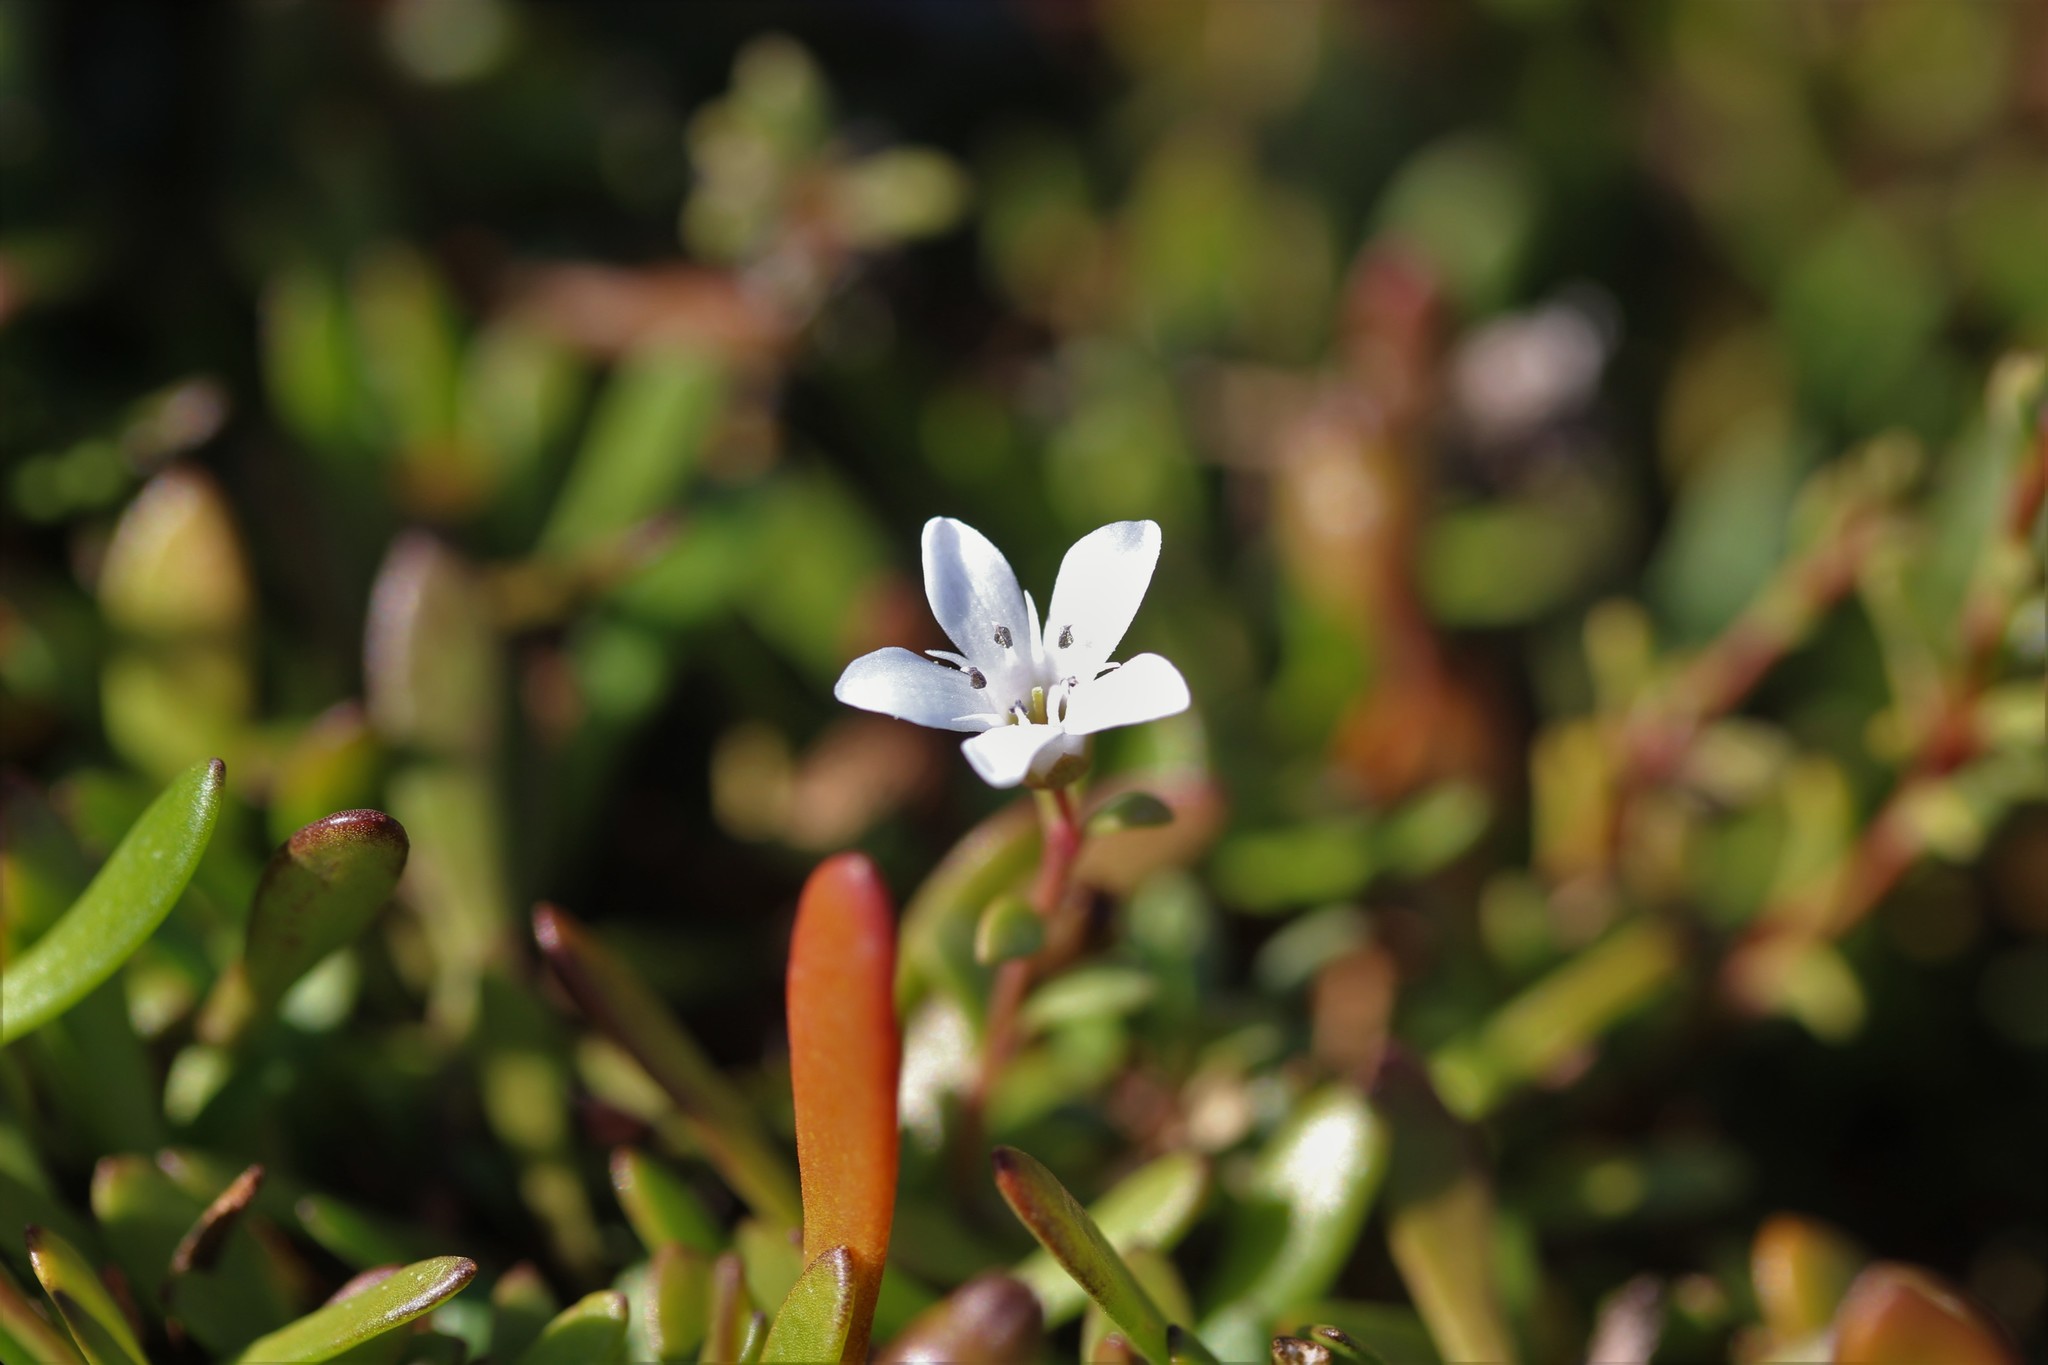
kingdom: Plantae
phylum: Tracheophyta
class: Magnoliopsida
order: Ericales
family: Primulaceae
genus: Samolus
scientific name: Samolus repens
